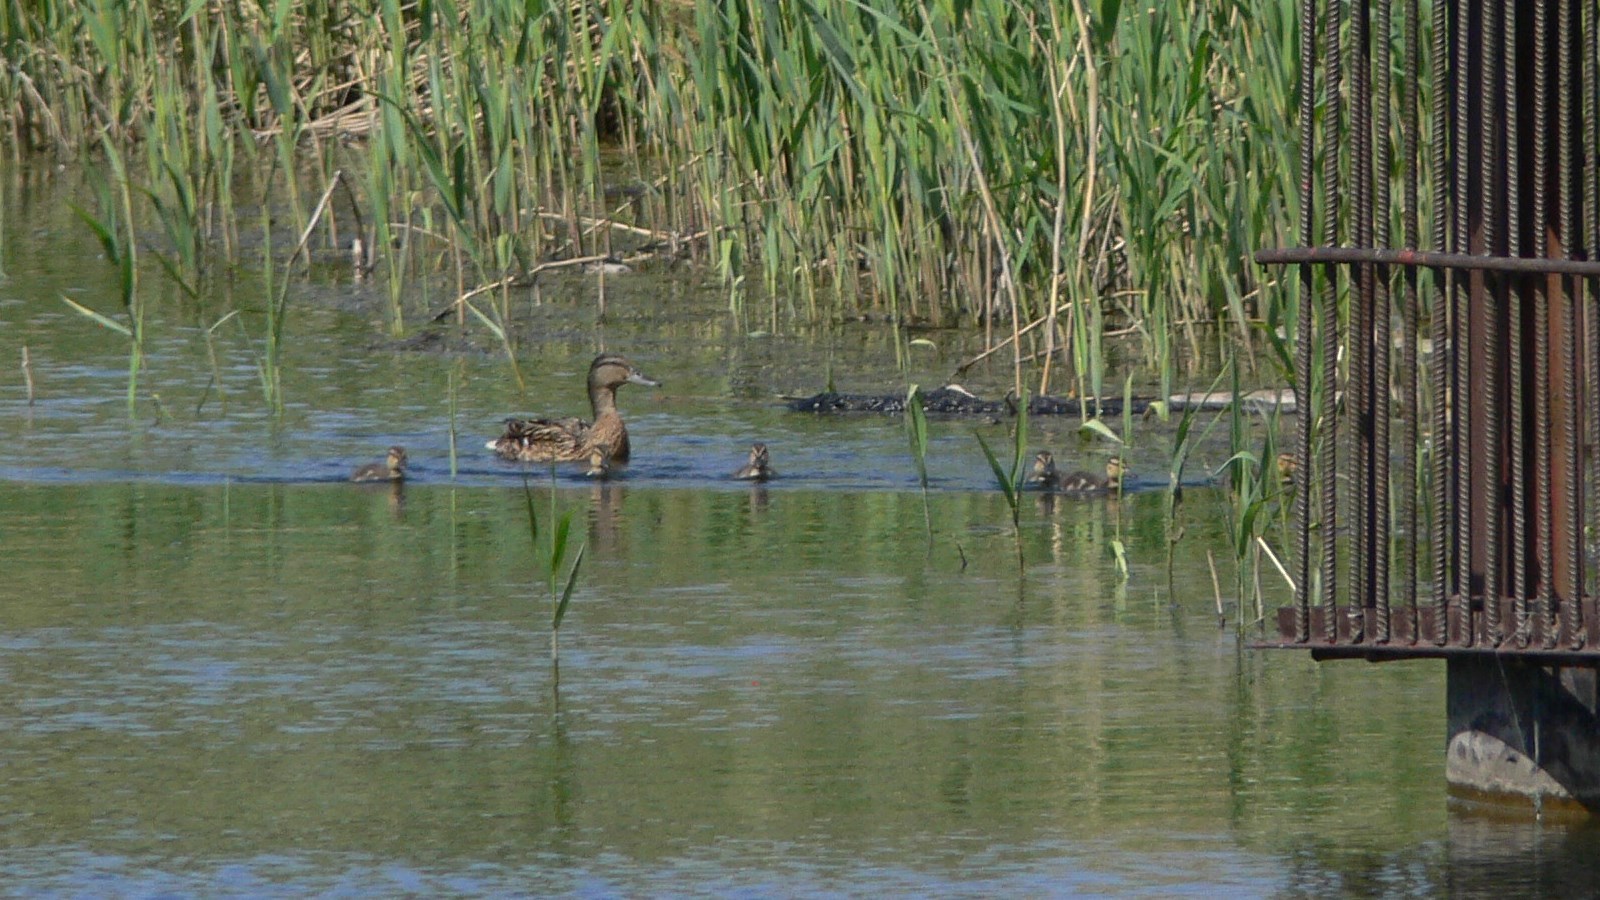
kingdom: Animalia
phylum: Chordata
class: Aves
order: Anseriformes
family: Anatidae
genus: Anas
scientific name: Anas platyrhynchos
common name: Mallard
